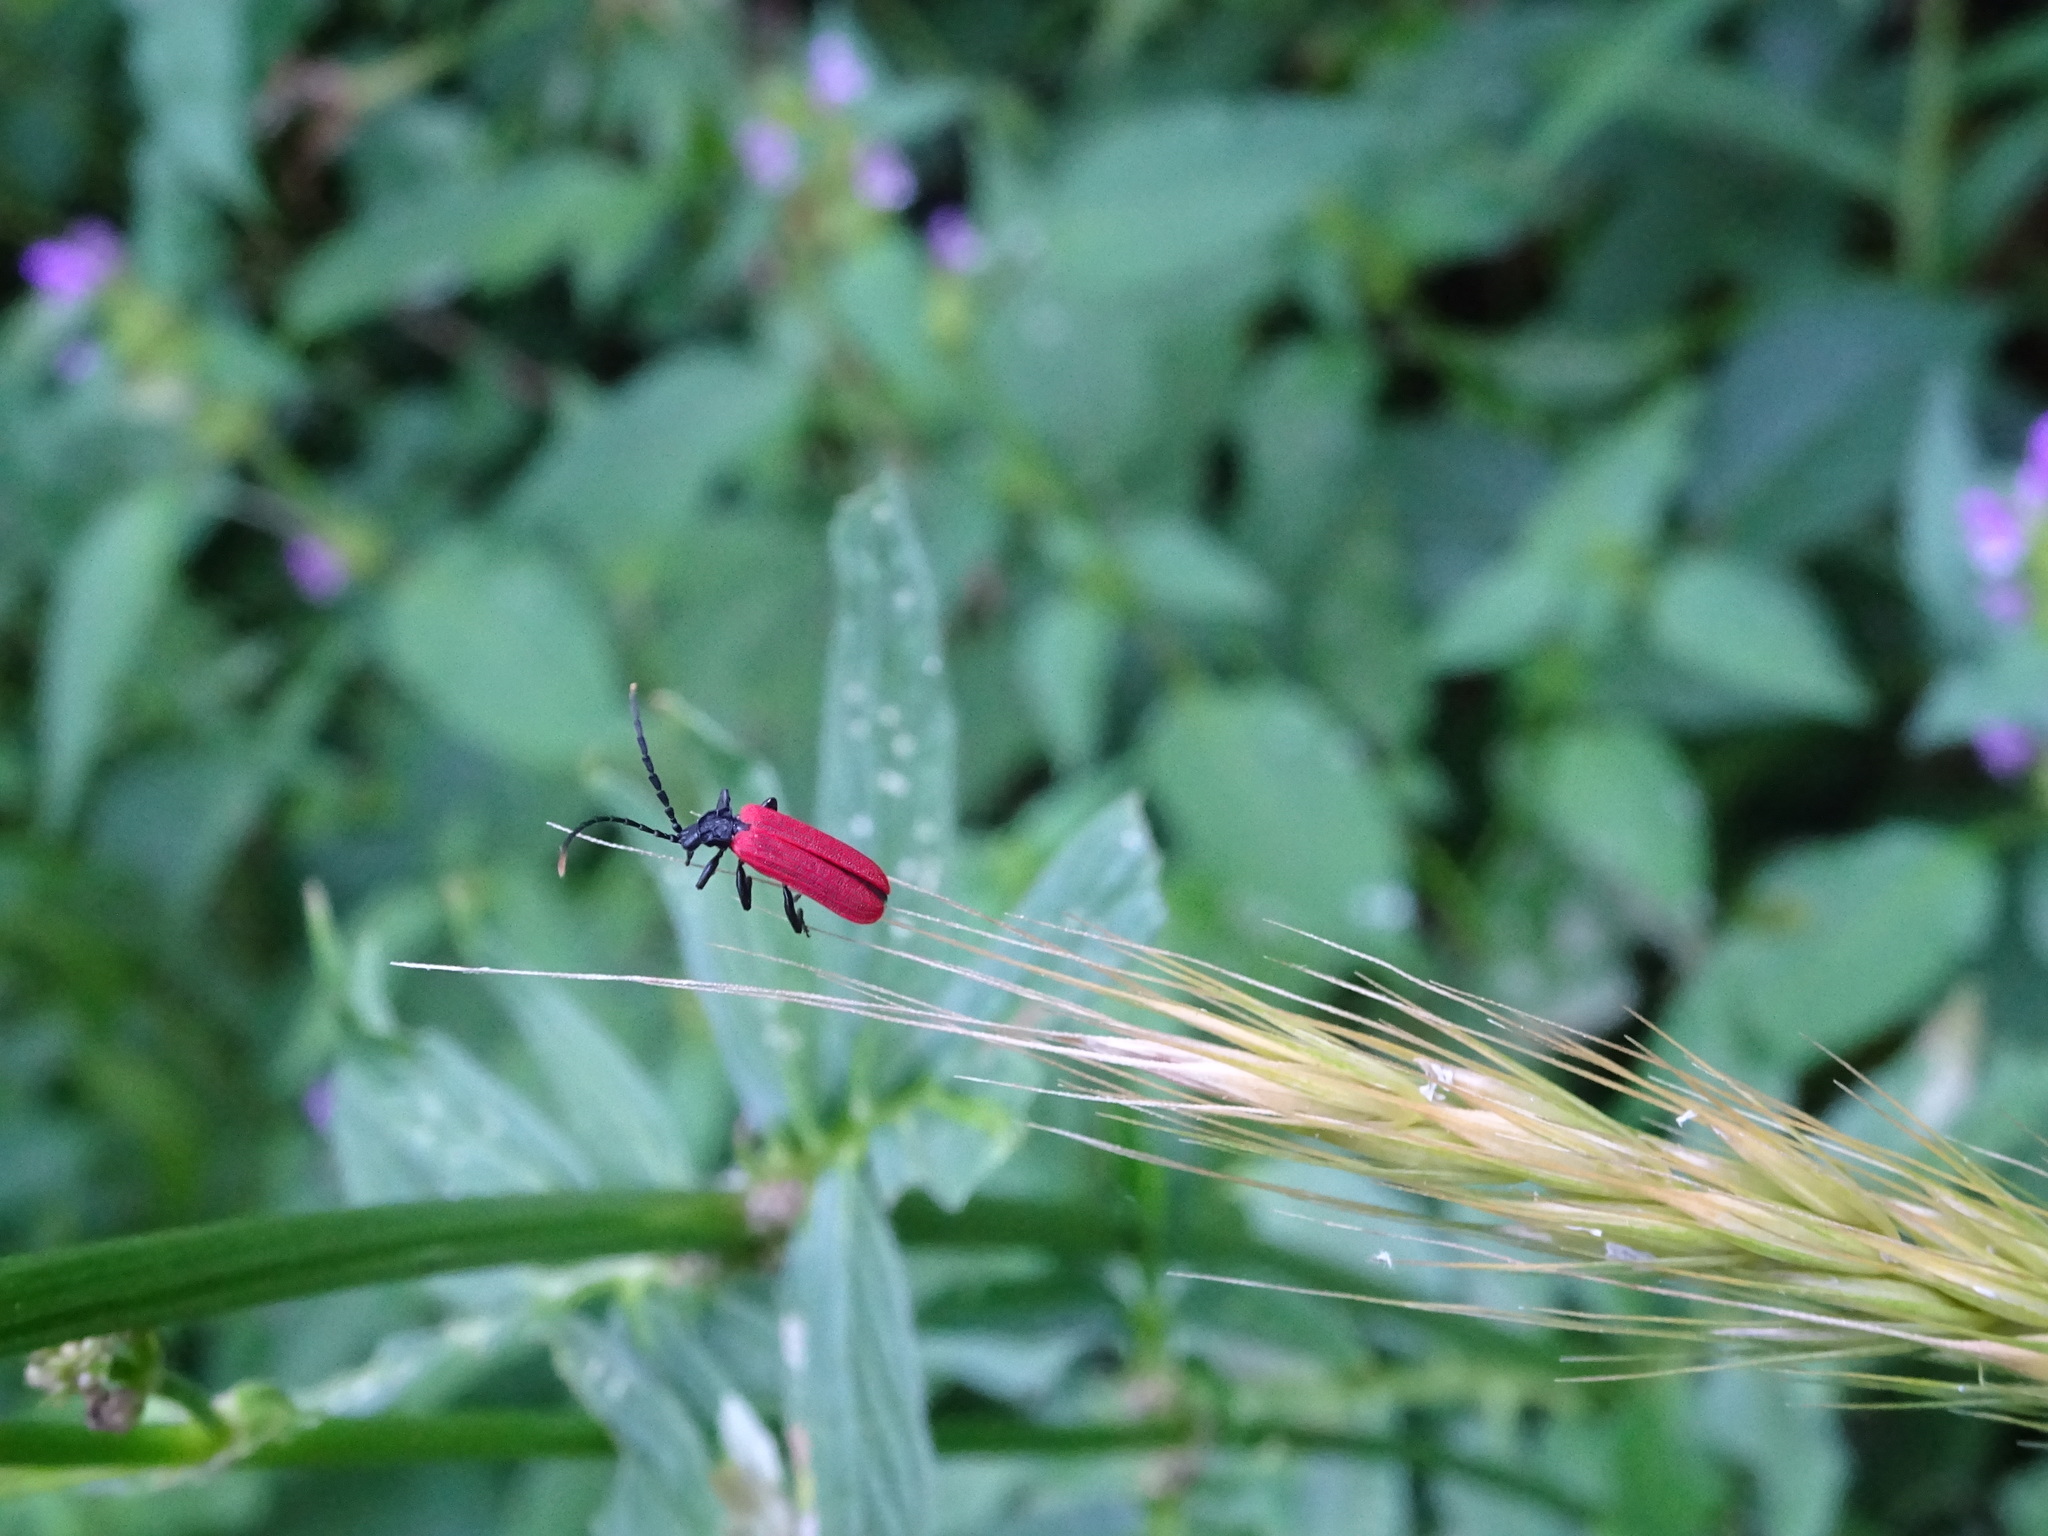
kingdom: Animalia
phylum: Arthropoda
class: Insecta
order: Coleoptera
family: Lycidae
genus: Platycis
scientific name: Platycis minutus
